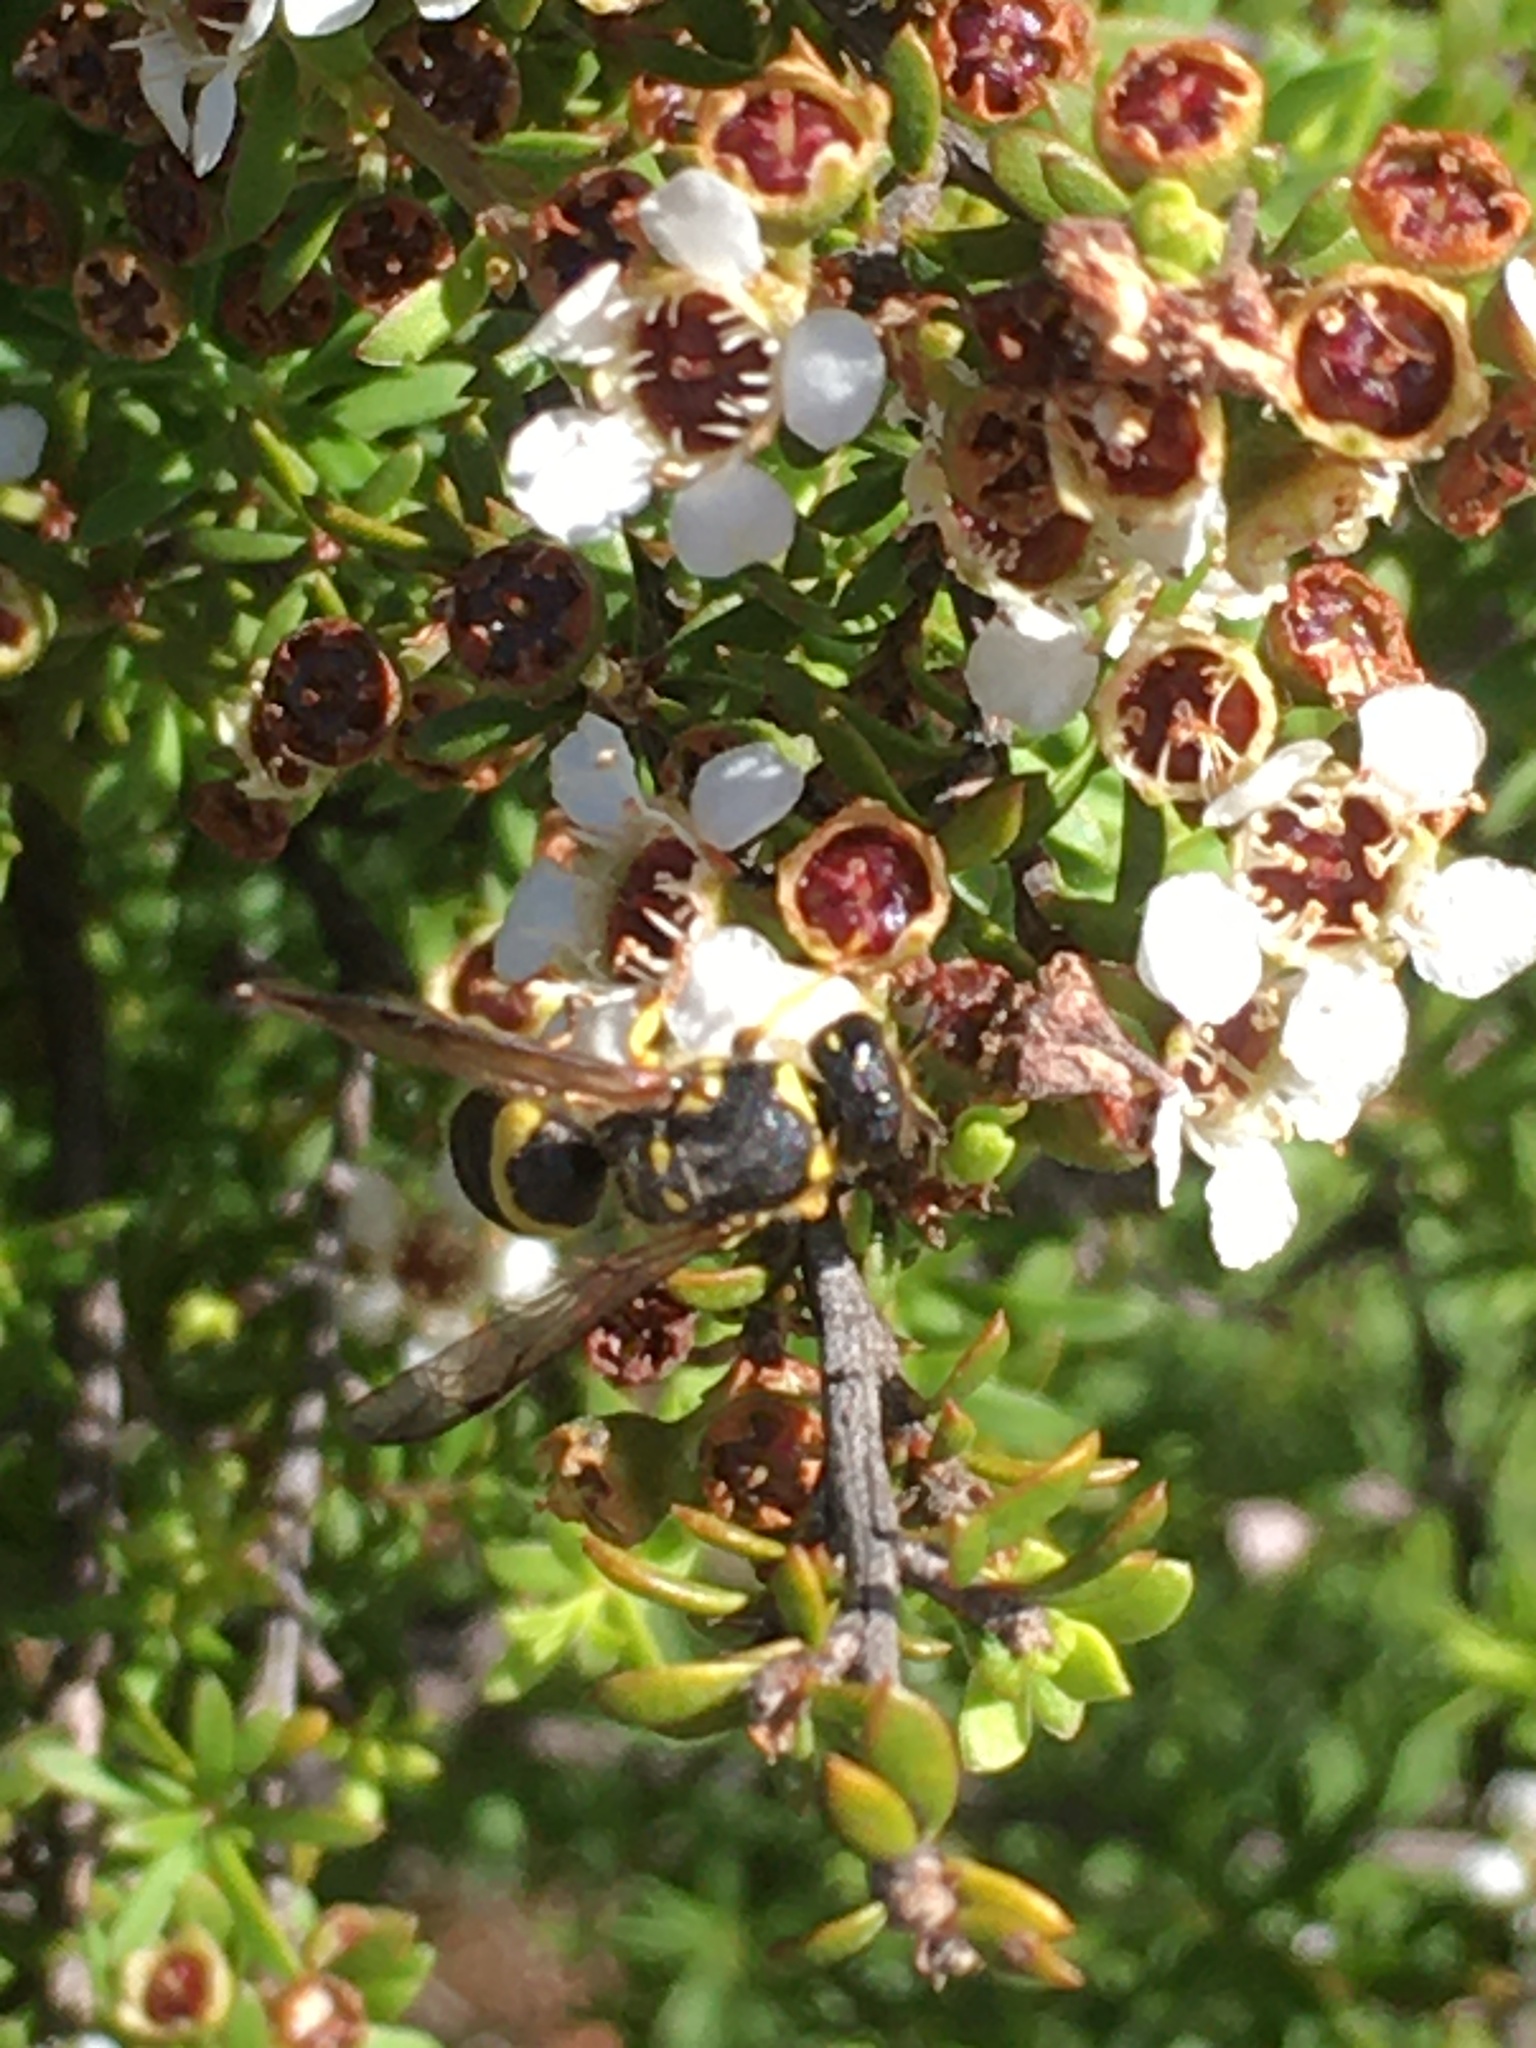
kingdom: Animalia
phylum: Arthropoda
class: Insecta
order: Hymenoptera
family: Vespidae
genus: Ancistrocerus
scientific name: Ancistrocerus gazella
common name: European tube wasp
